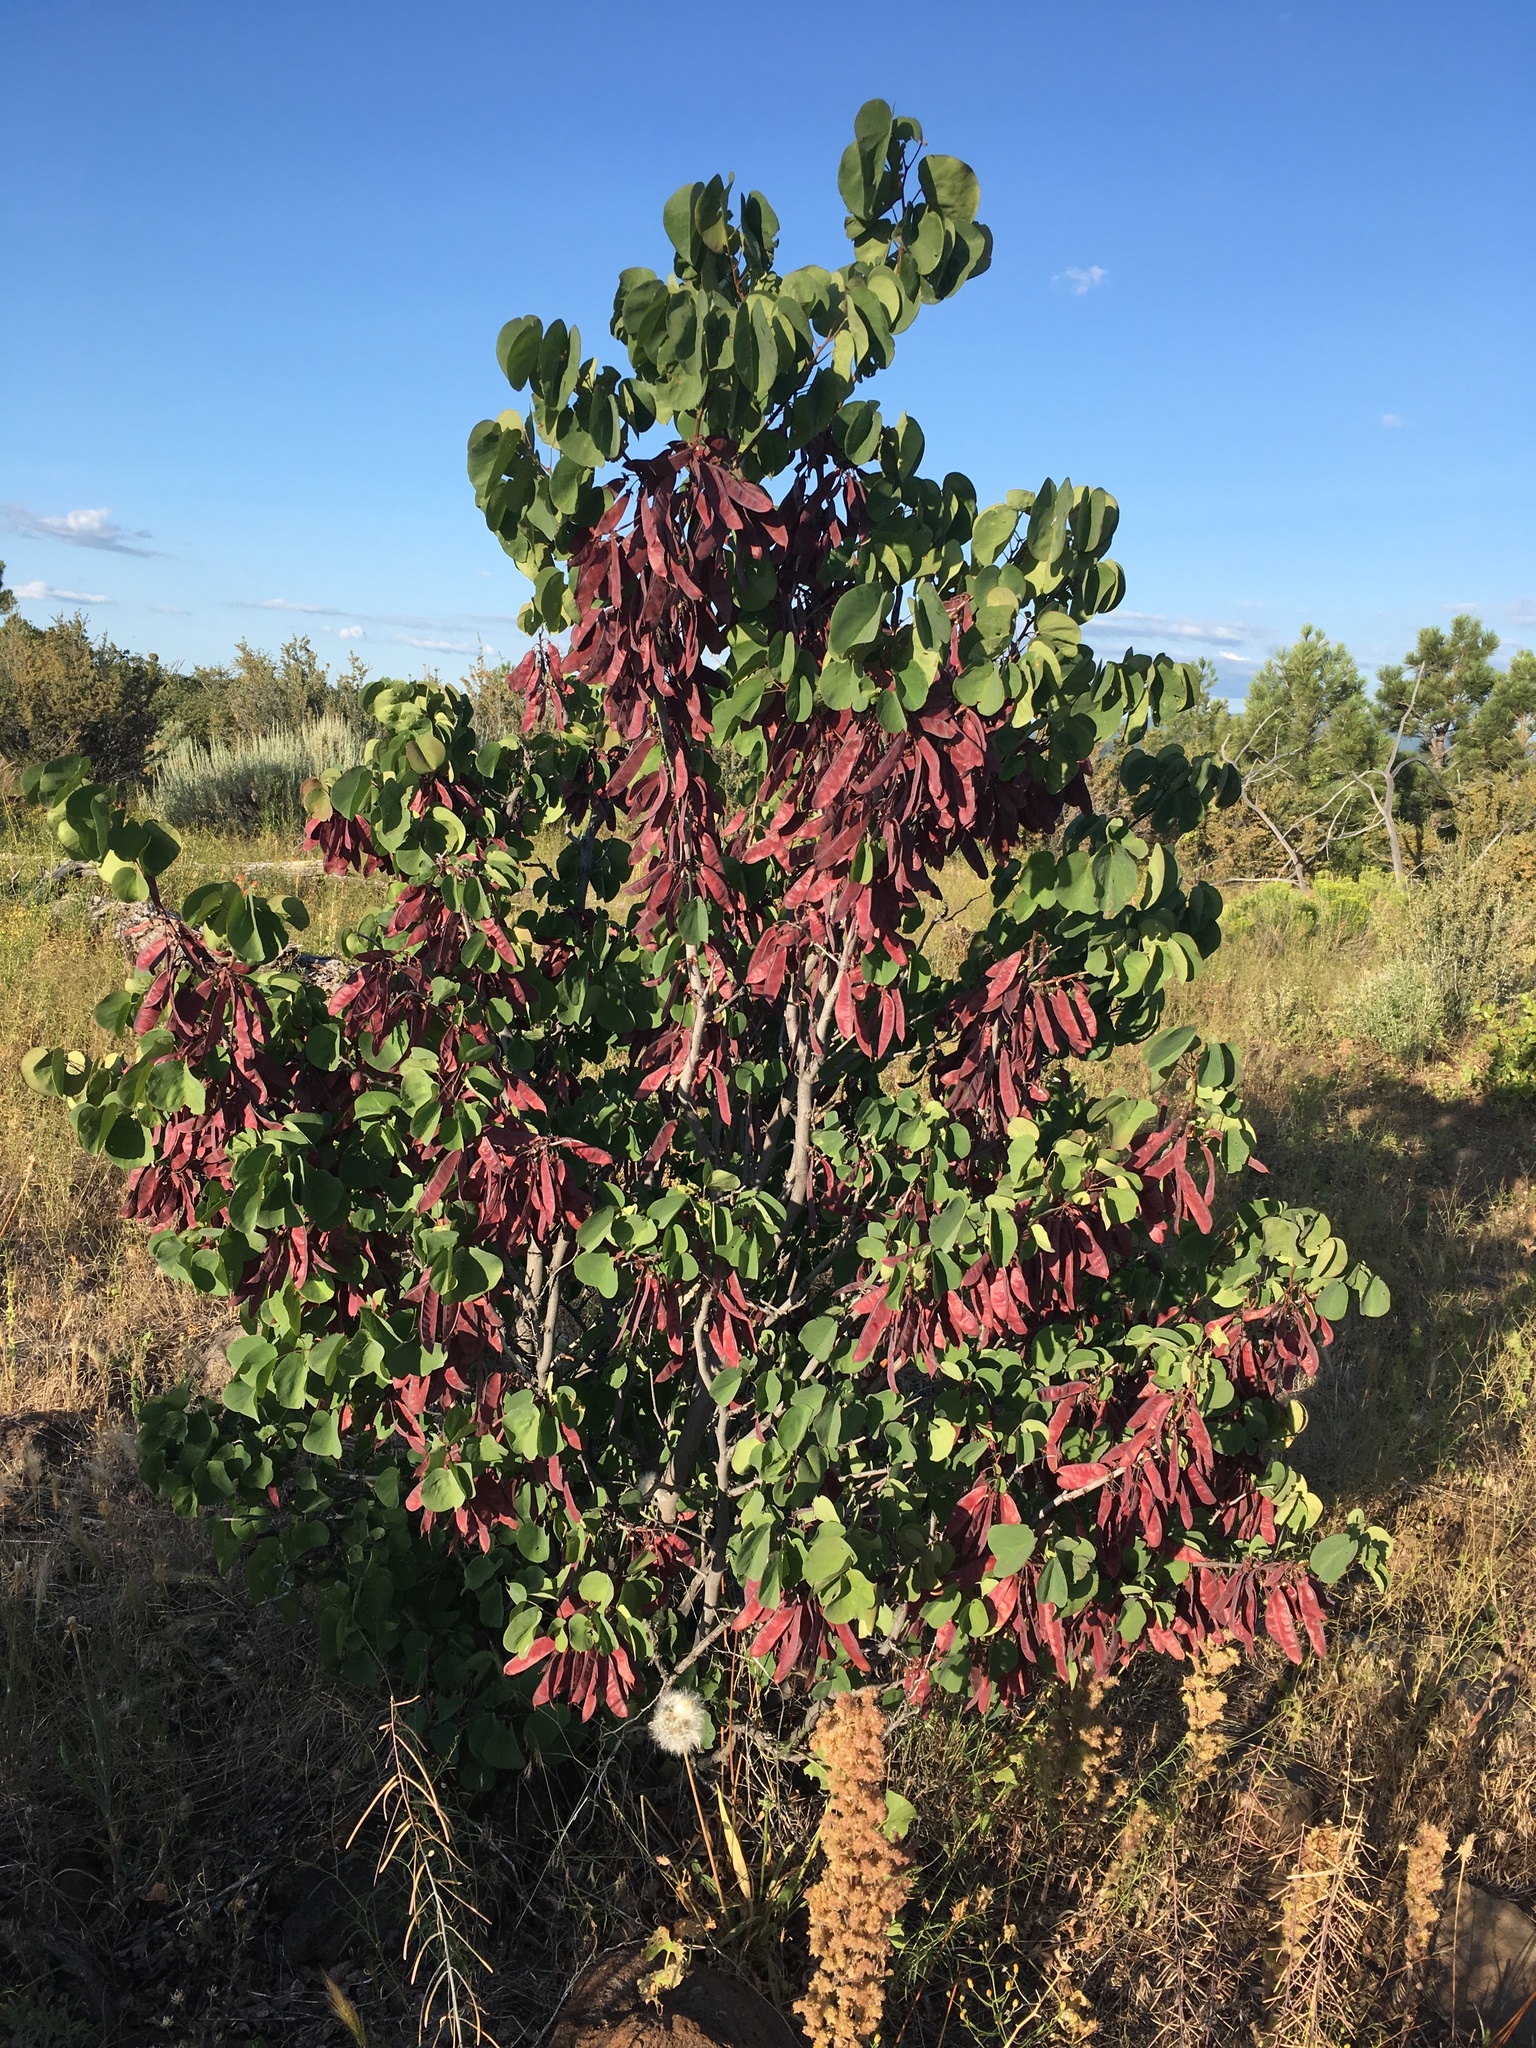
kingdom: Plantae
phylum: Tracheophyta
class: Magnoliopsida
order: Fabales
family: Fabaceae
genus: Cercis
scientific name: Cercis occidentalis
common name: California redbud
